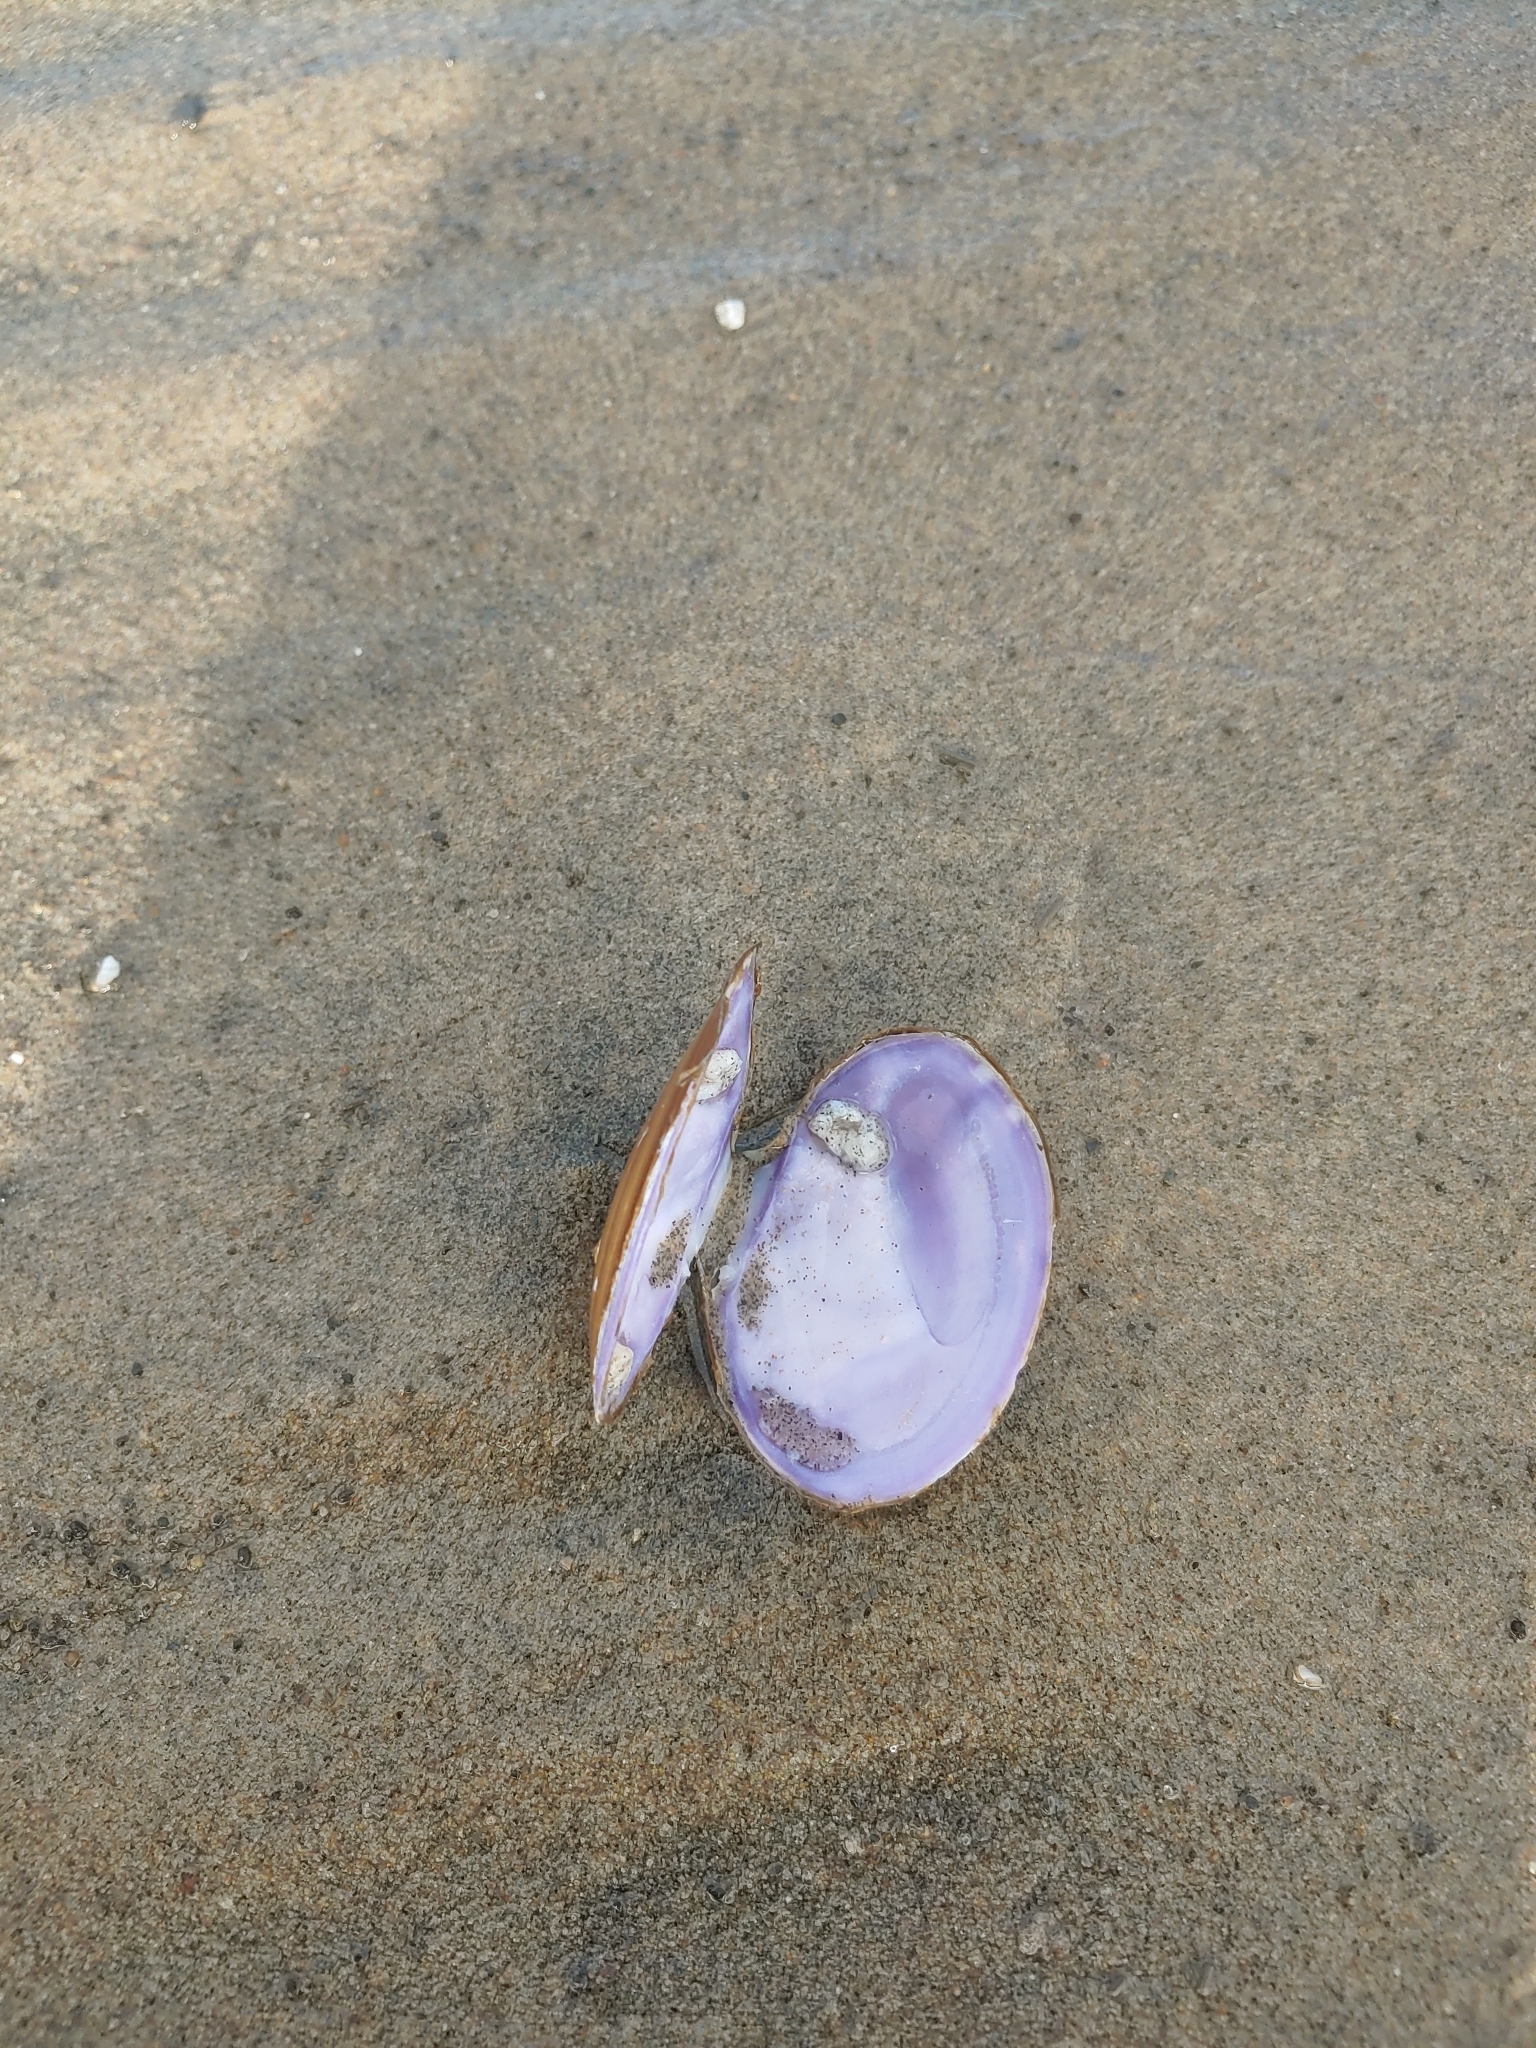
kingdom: Animalia
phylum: Mollusca
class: Bivalvia
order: Cardiida
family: Psammobiidae
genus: Nuttallia
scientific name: Nuttallia obscurata
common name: Purple mahogany-clam
